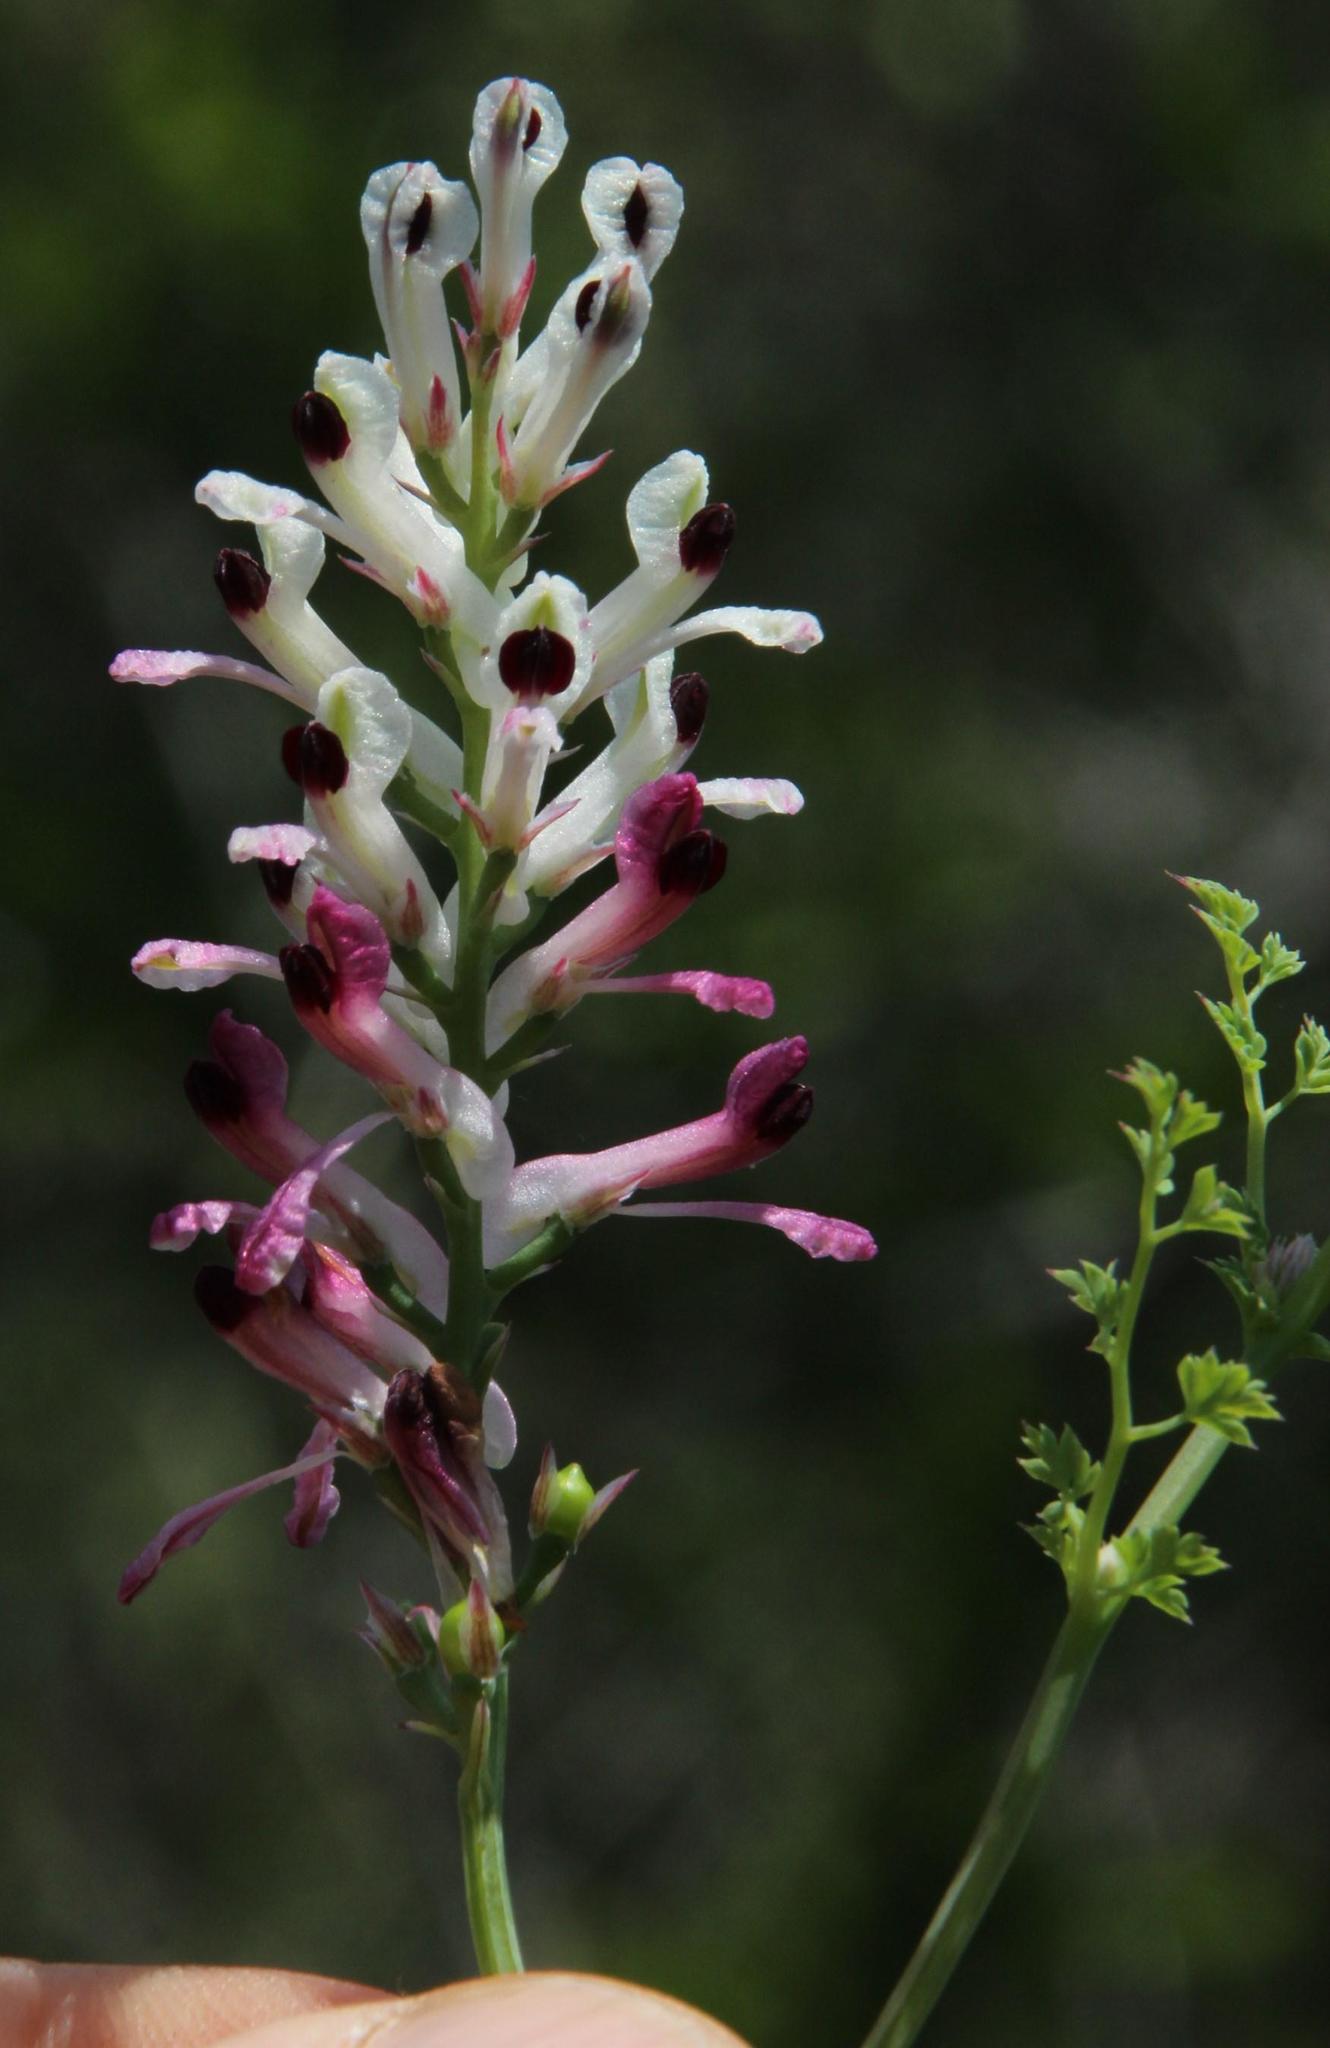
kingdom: Plantae
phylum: Tracheophyta
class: Magnoliopsida
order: Ranunculales
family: Papaveraceae
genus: Fumaria
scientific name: Fumaria capreolata
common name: White ramping-fumitory
